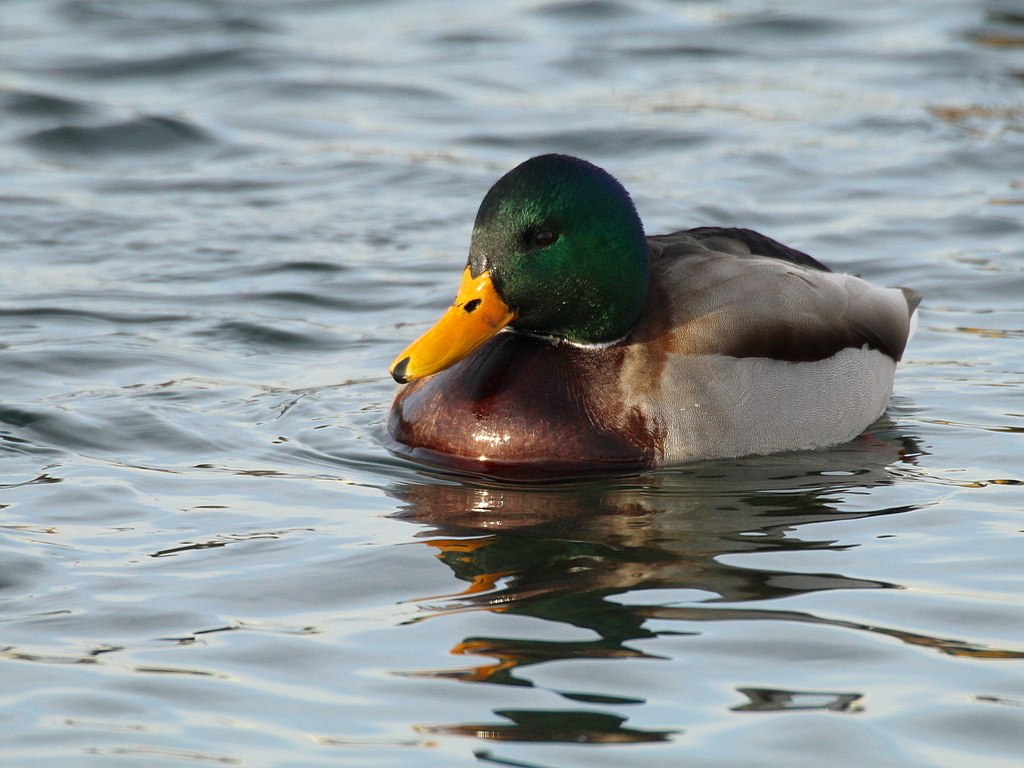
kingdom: Animalia
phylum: Chordata
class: Aves
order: Anseriformes
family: Anatidae
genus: Anas
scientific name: Anas platyrhynchos
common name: Mallard
